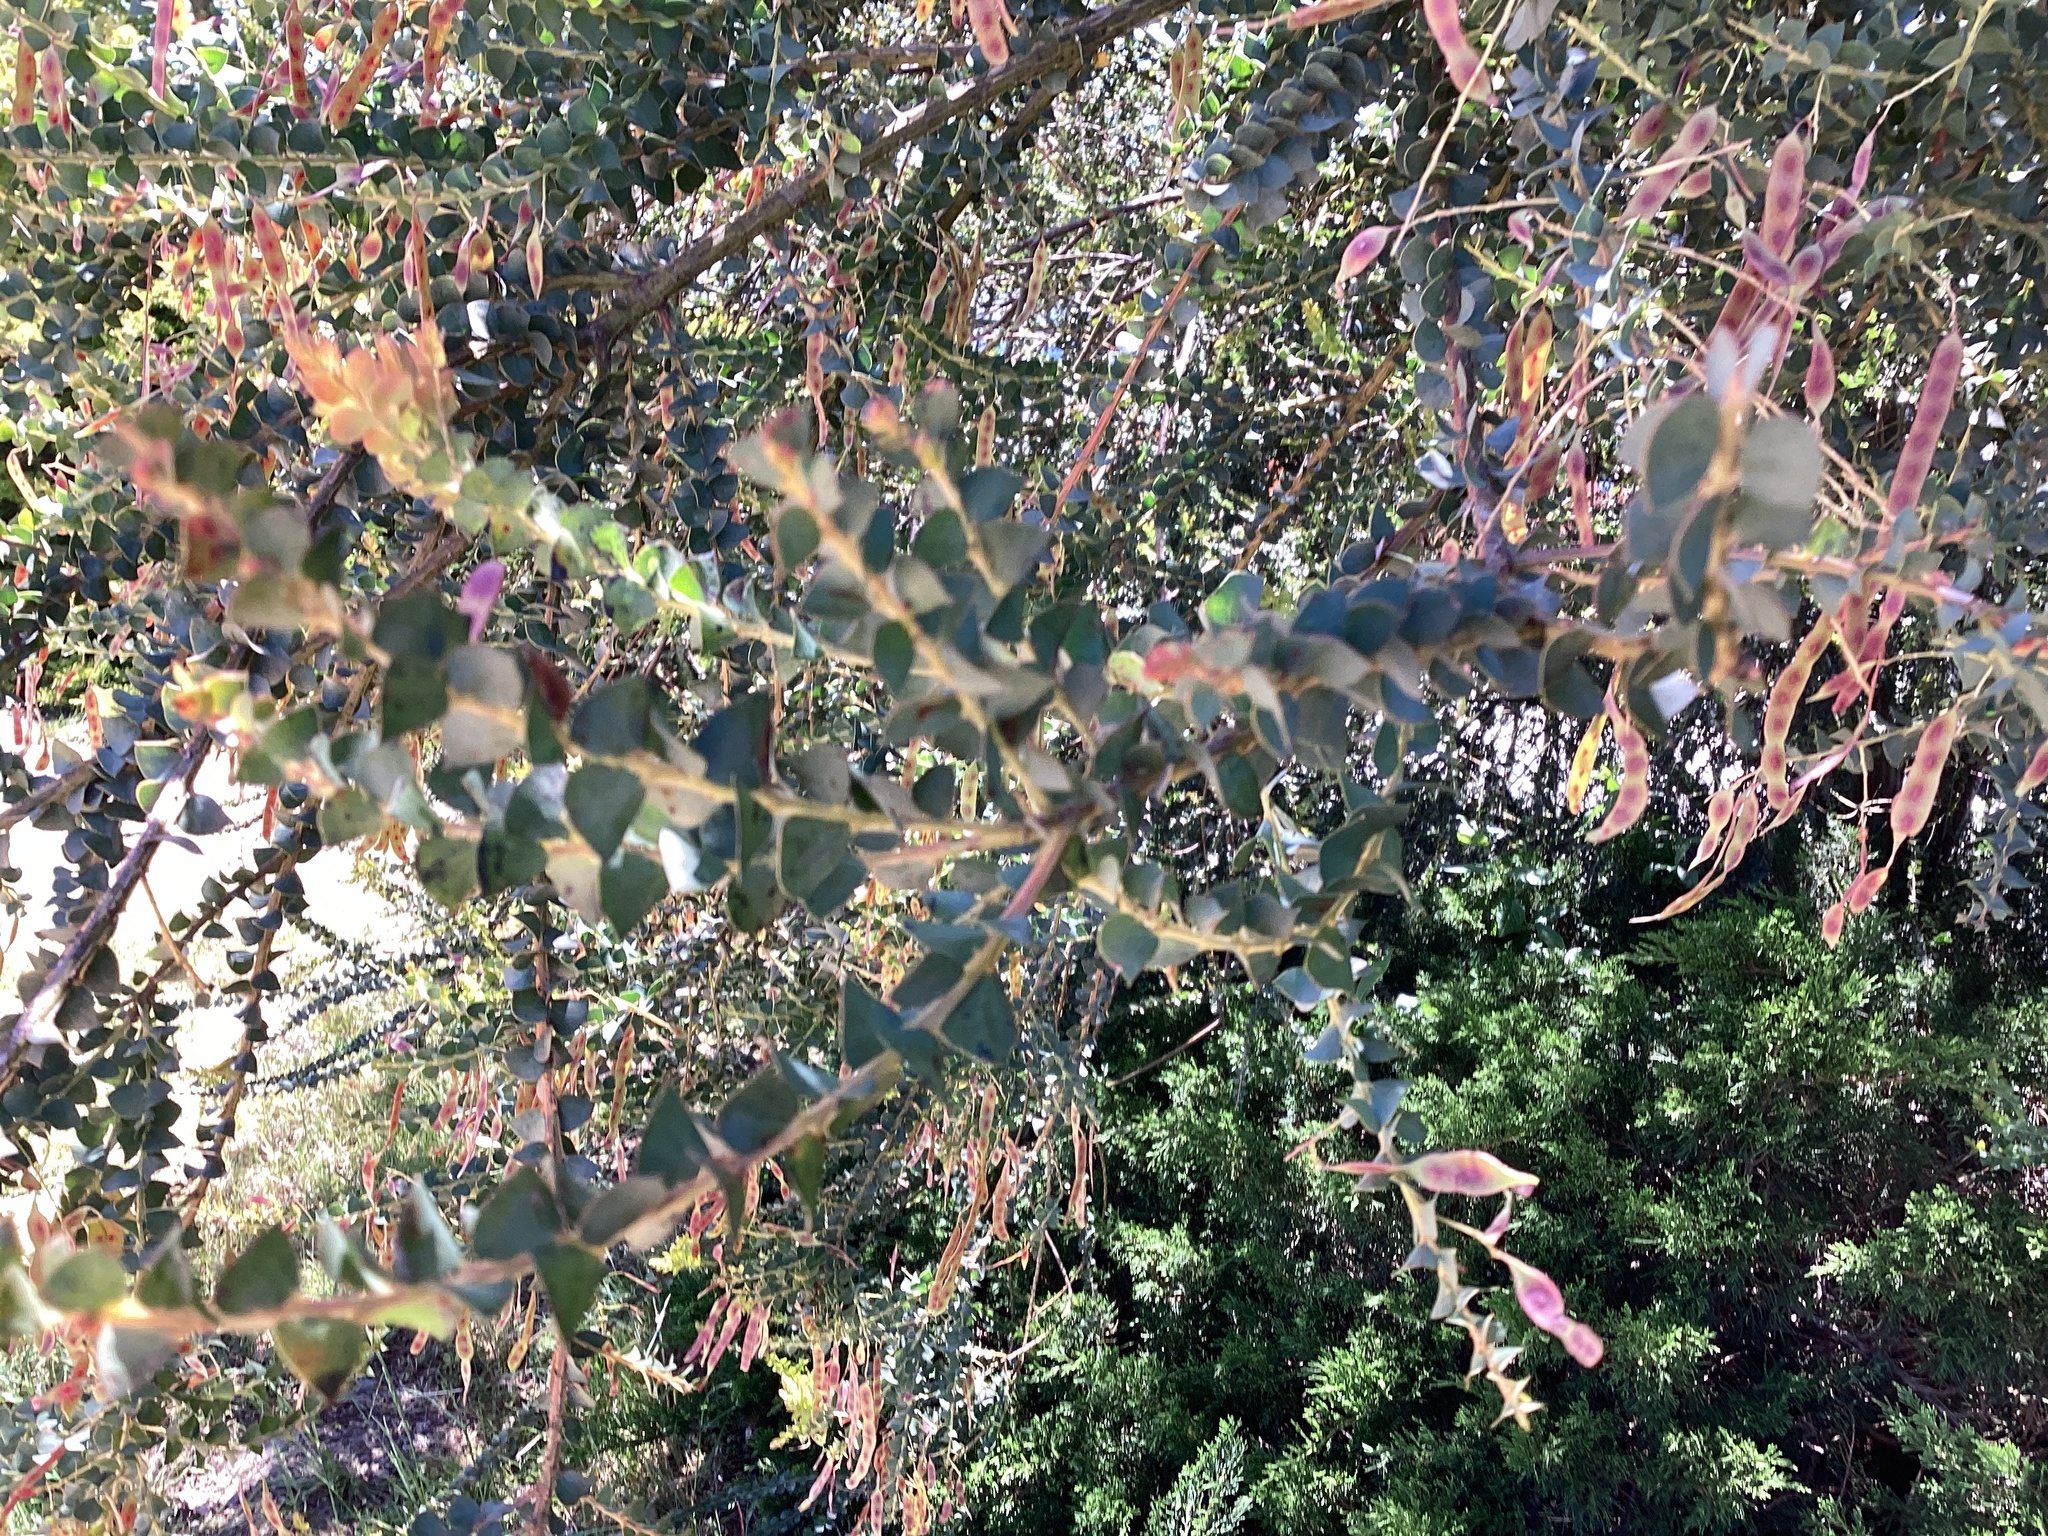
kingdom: Plantae
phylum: Tracheophyta
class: Magnoliopsida
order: Fabales
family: Fabaceae
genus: Acacia
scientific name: Acacia pravissima
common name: Tumut wattle
